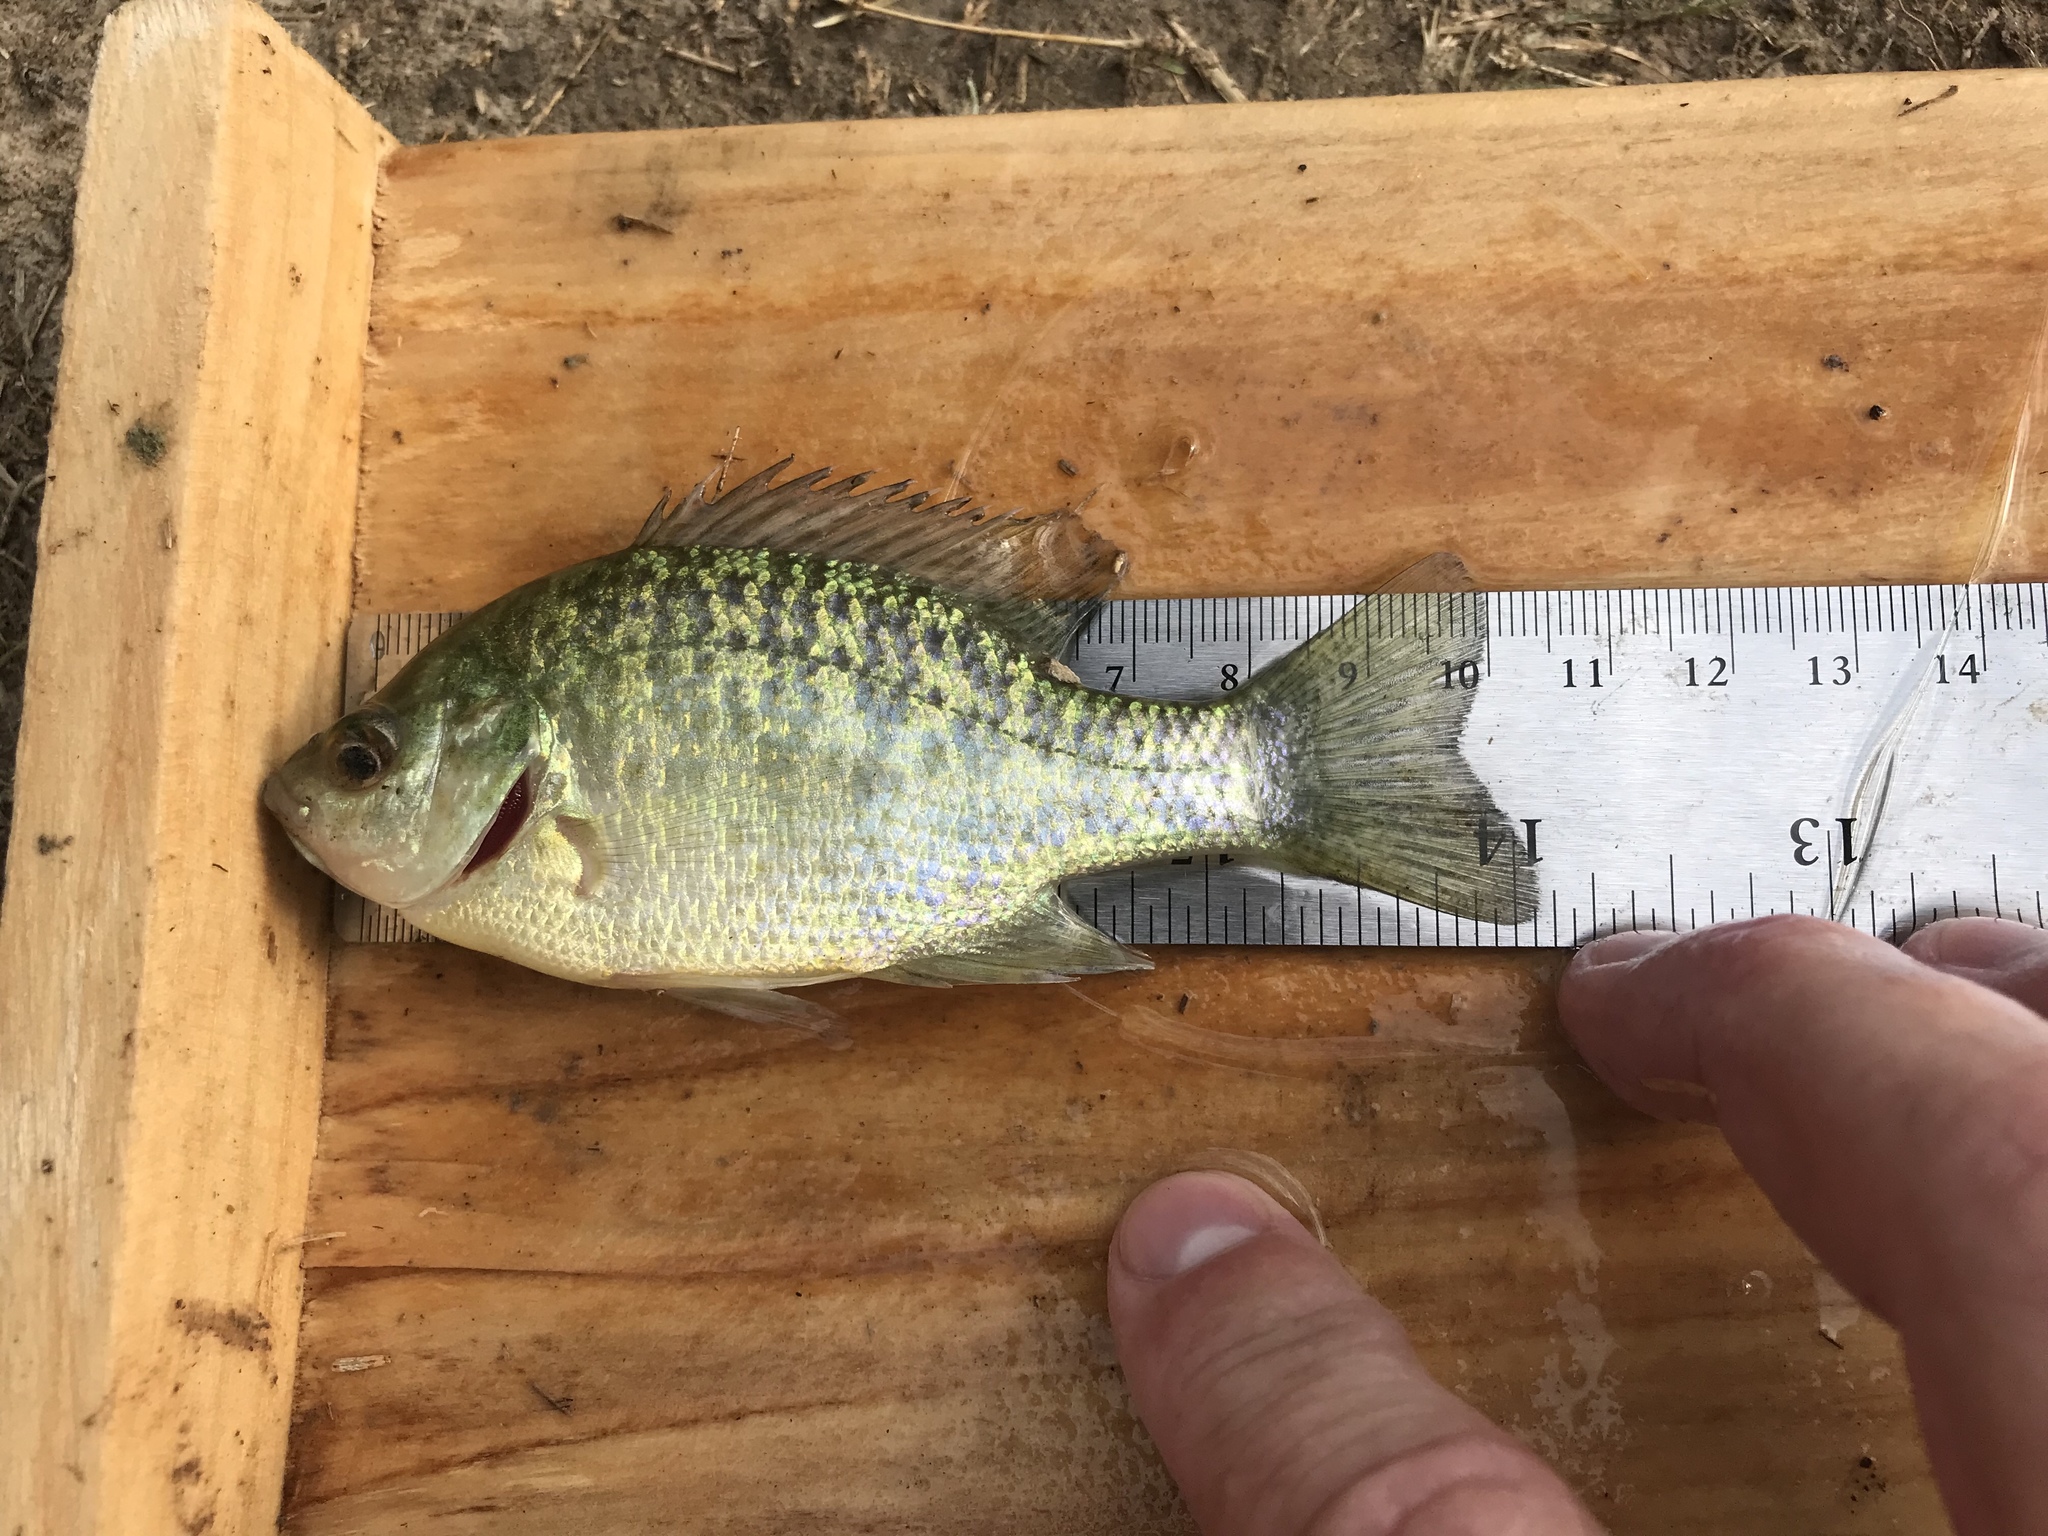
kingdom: Animalia
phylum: Chordata
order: Perciformes
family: Centrarchidae
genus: Lepomis
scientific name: Lepomis microlophus
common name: Redear sunfish
